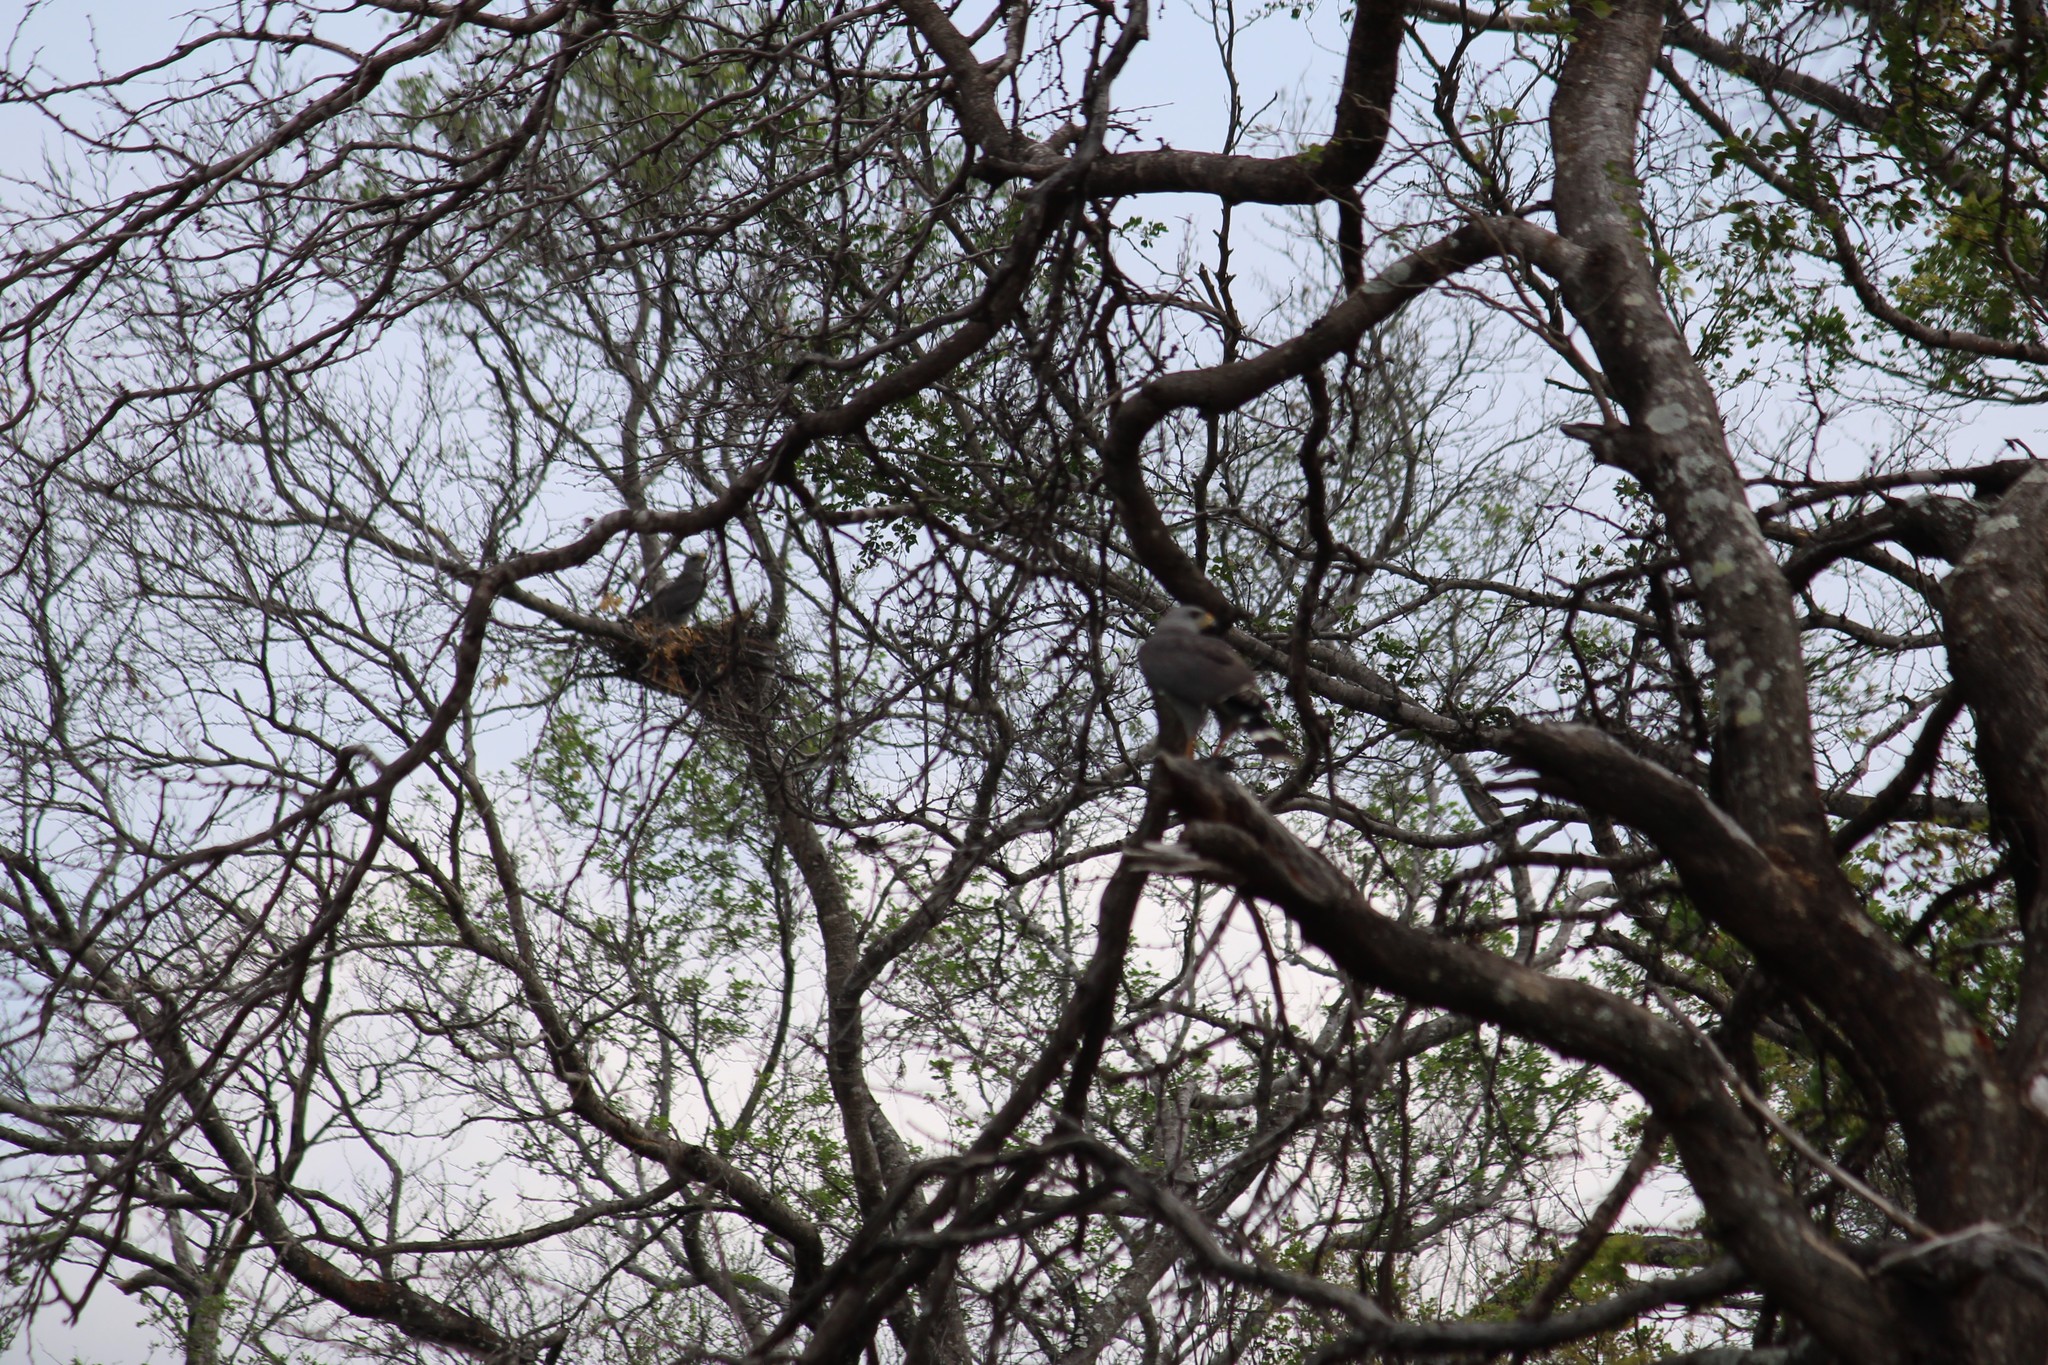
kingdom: Animalia
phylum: Chordata
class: Aves
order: Accipitriformes
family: Accipitridae
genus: Buteo
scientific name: Buteo nitidus
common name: Grey-lined hawk
